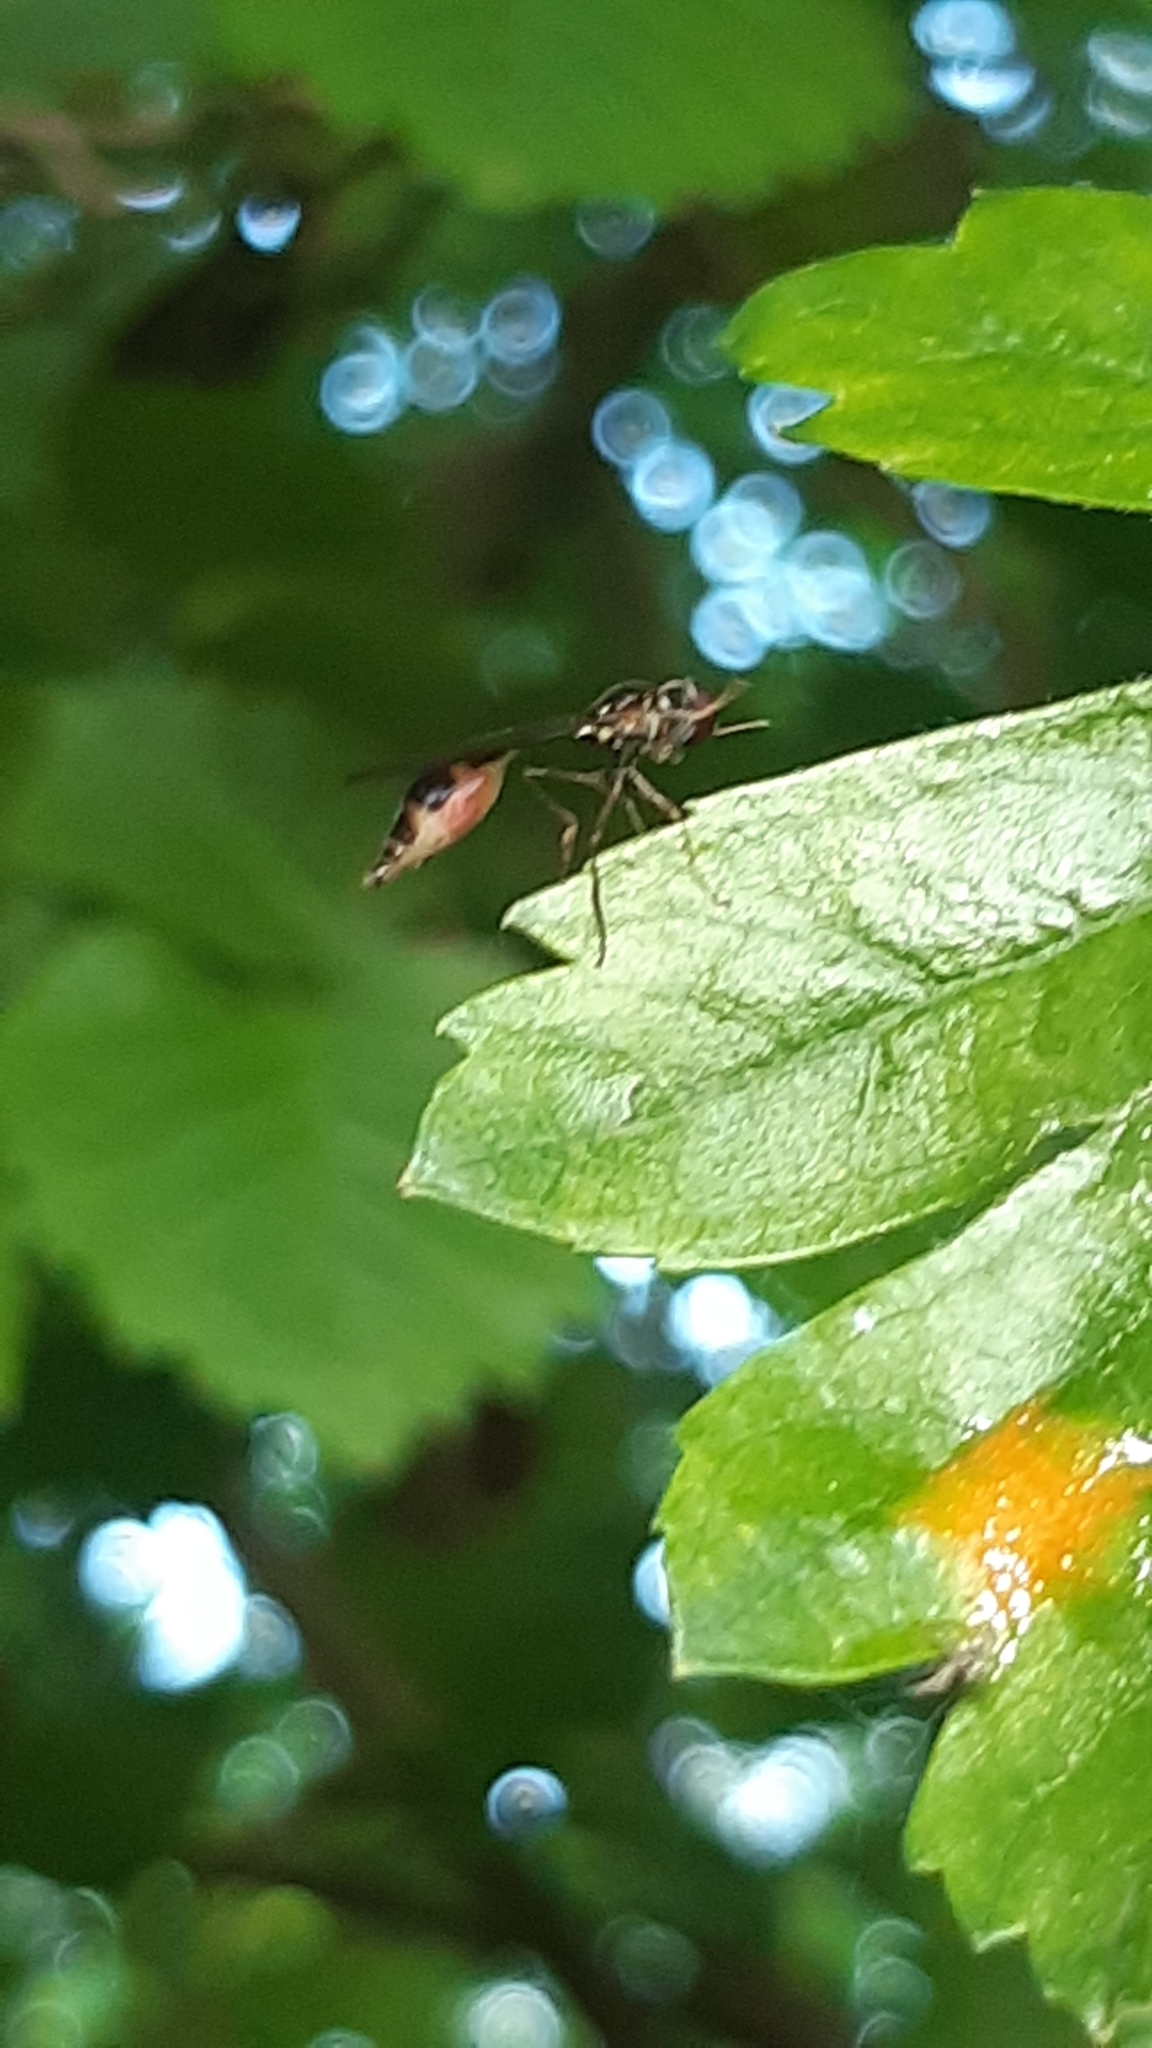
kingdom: Animalia
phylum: Arthropoda
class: Insecta
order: Diptera
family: Syrphidae
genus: Baccha
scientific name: Baccha elongata
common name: Common dainty
